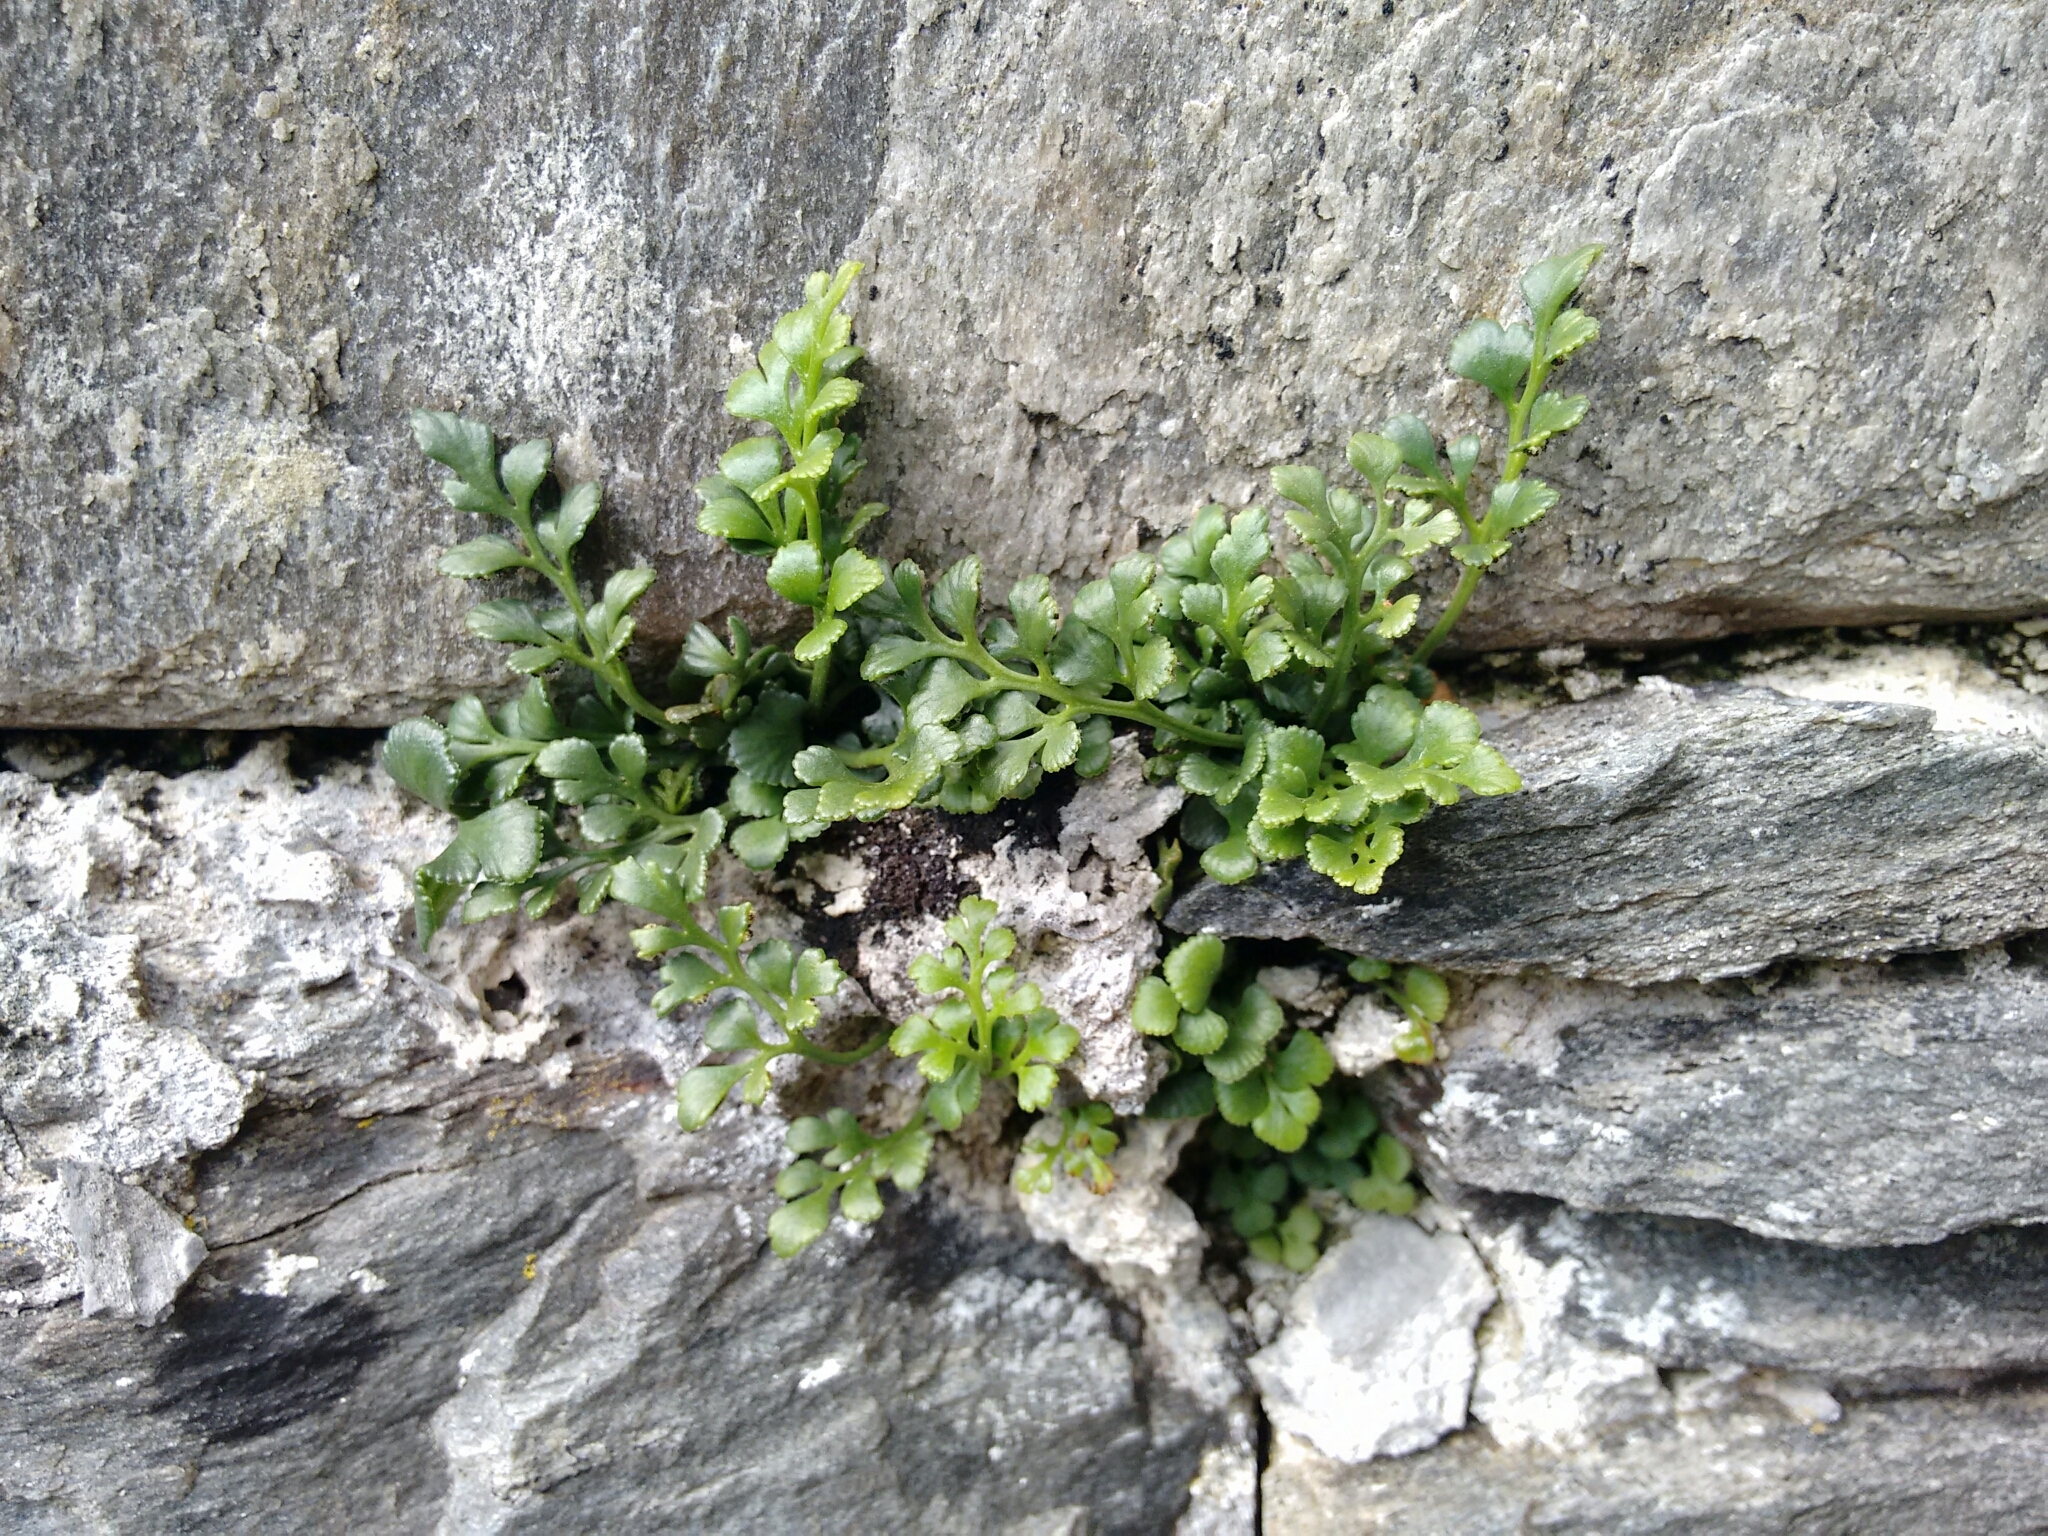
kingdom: Plantae
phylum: Tracheophyta
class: Polypodiopsida
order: Polypodiales
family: Aspleniaceae
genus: Asplenium
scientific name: Asplenium ruta-muraria
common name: Wall-rue
